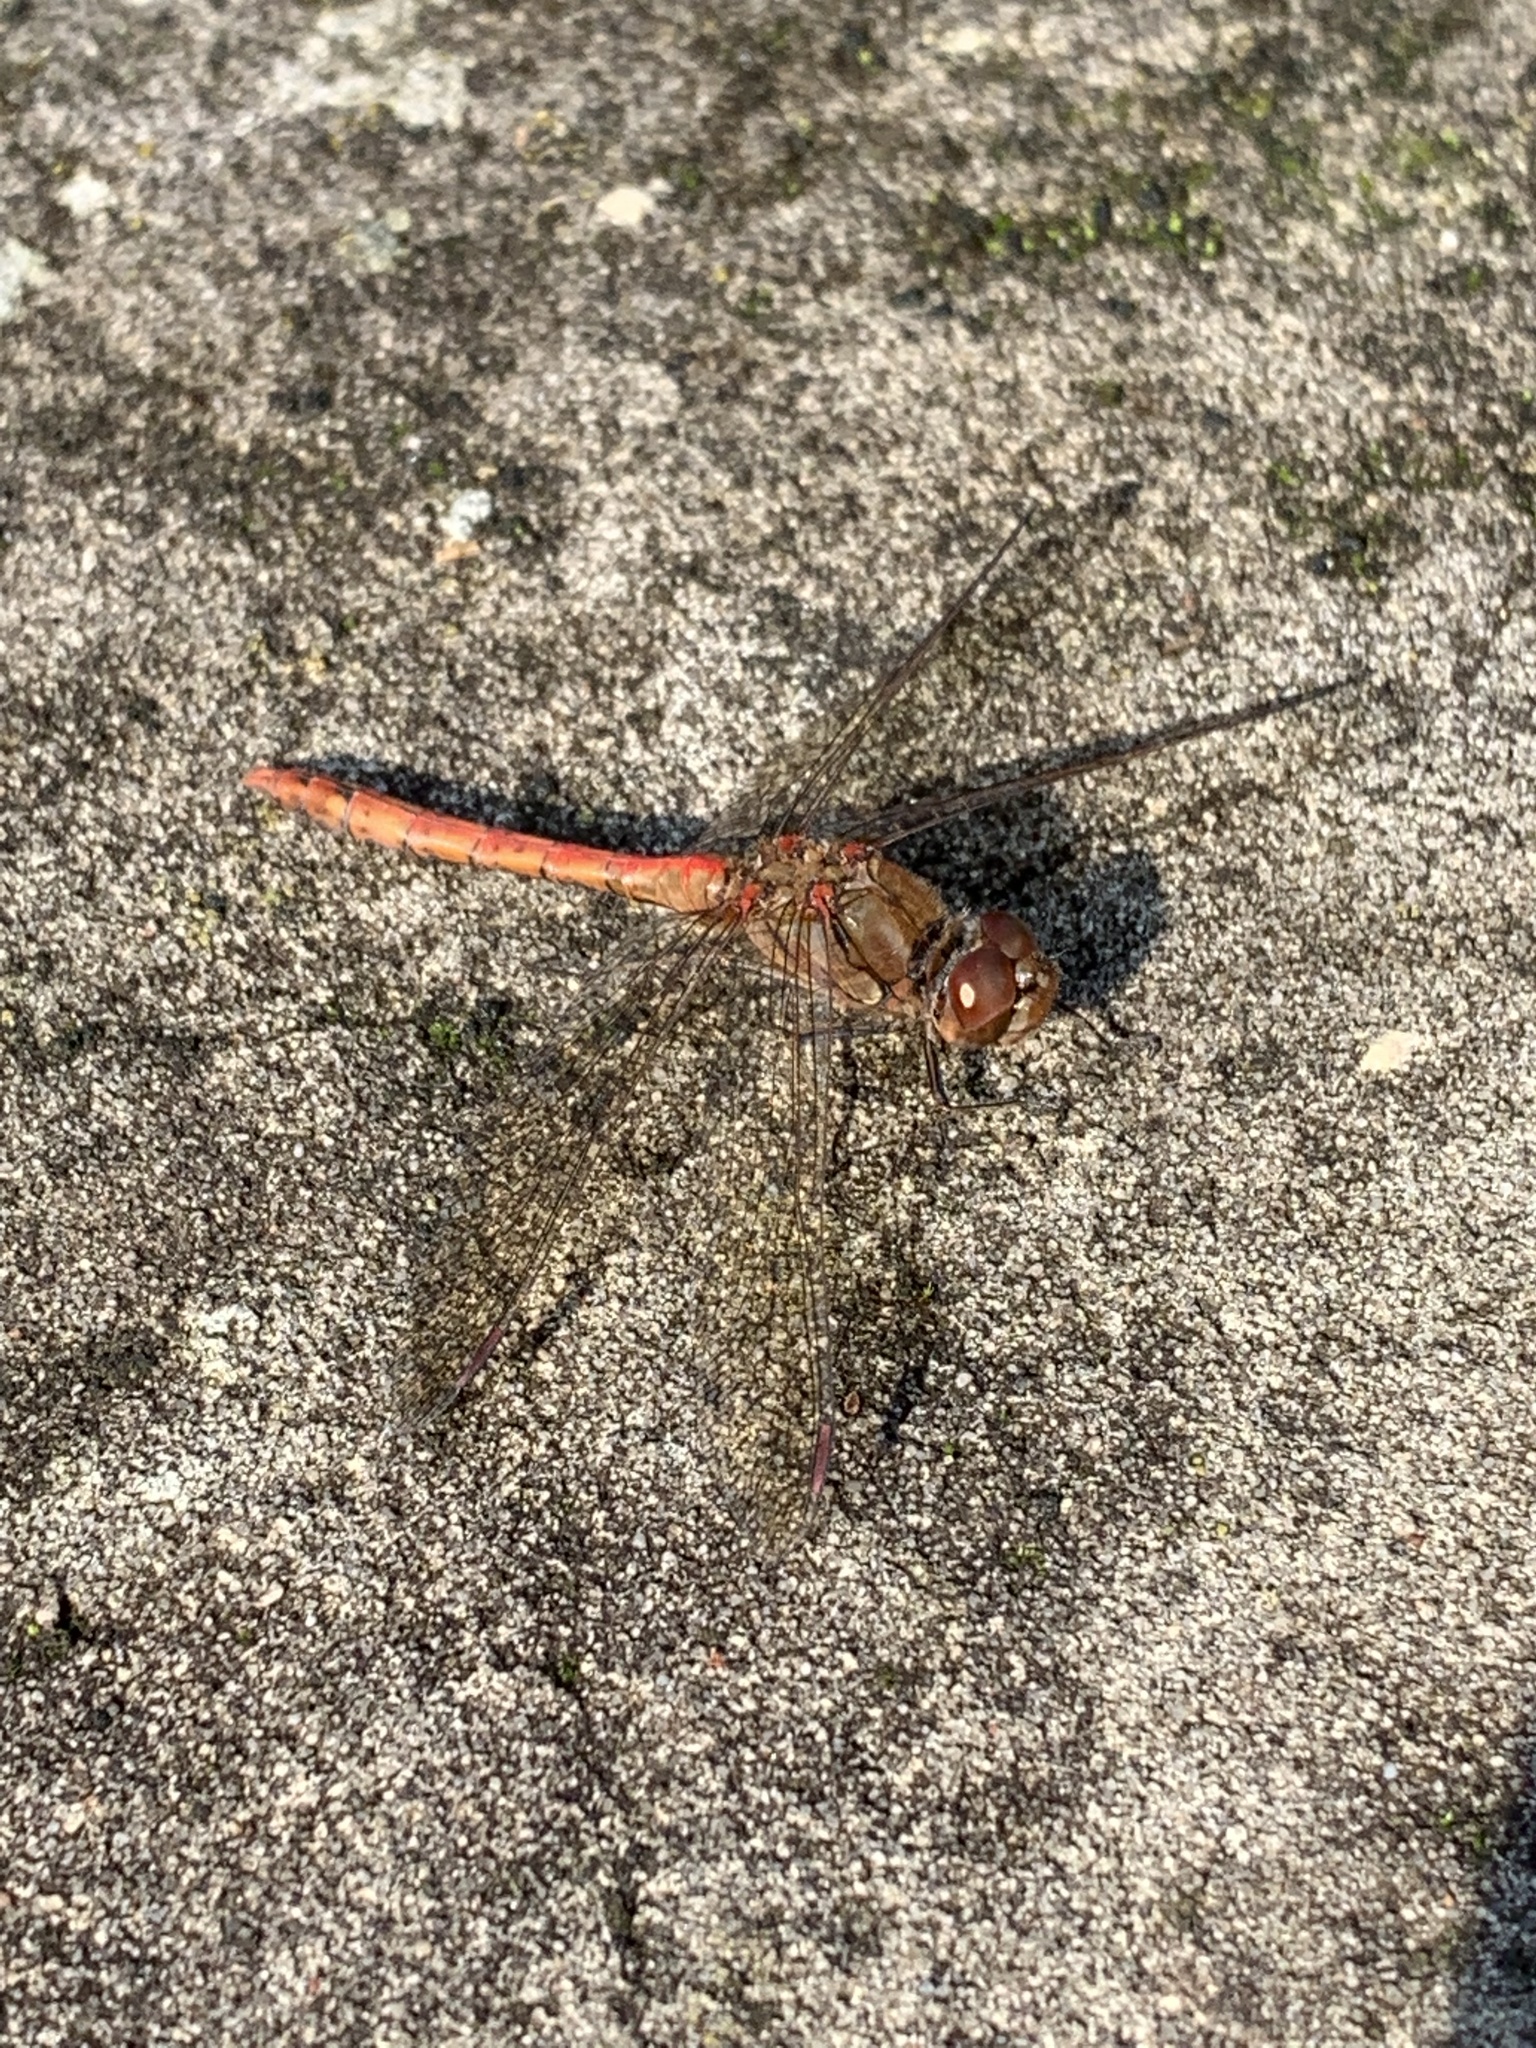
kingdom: Animalia
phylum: Arthropoda
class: Insecta
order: Odonata
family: Libellulidae
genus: Sympetrum
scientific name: Sympetrum striolatum
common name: Common darter
